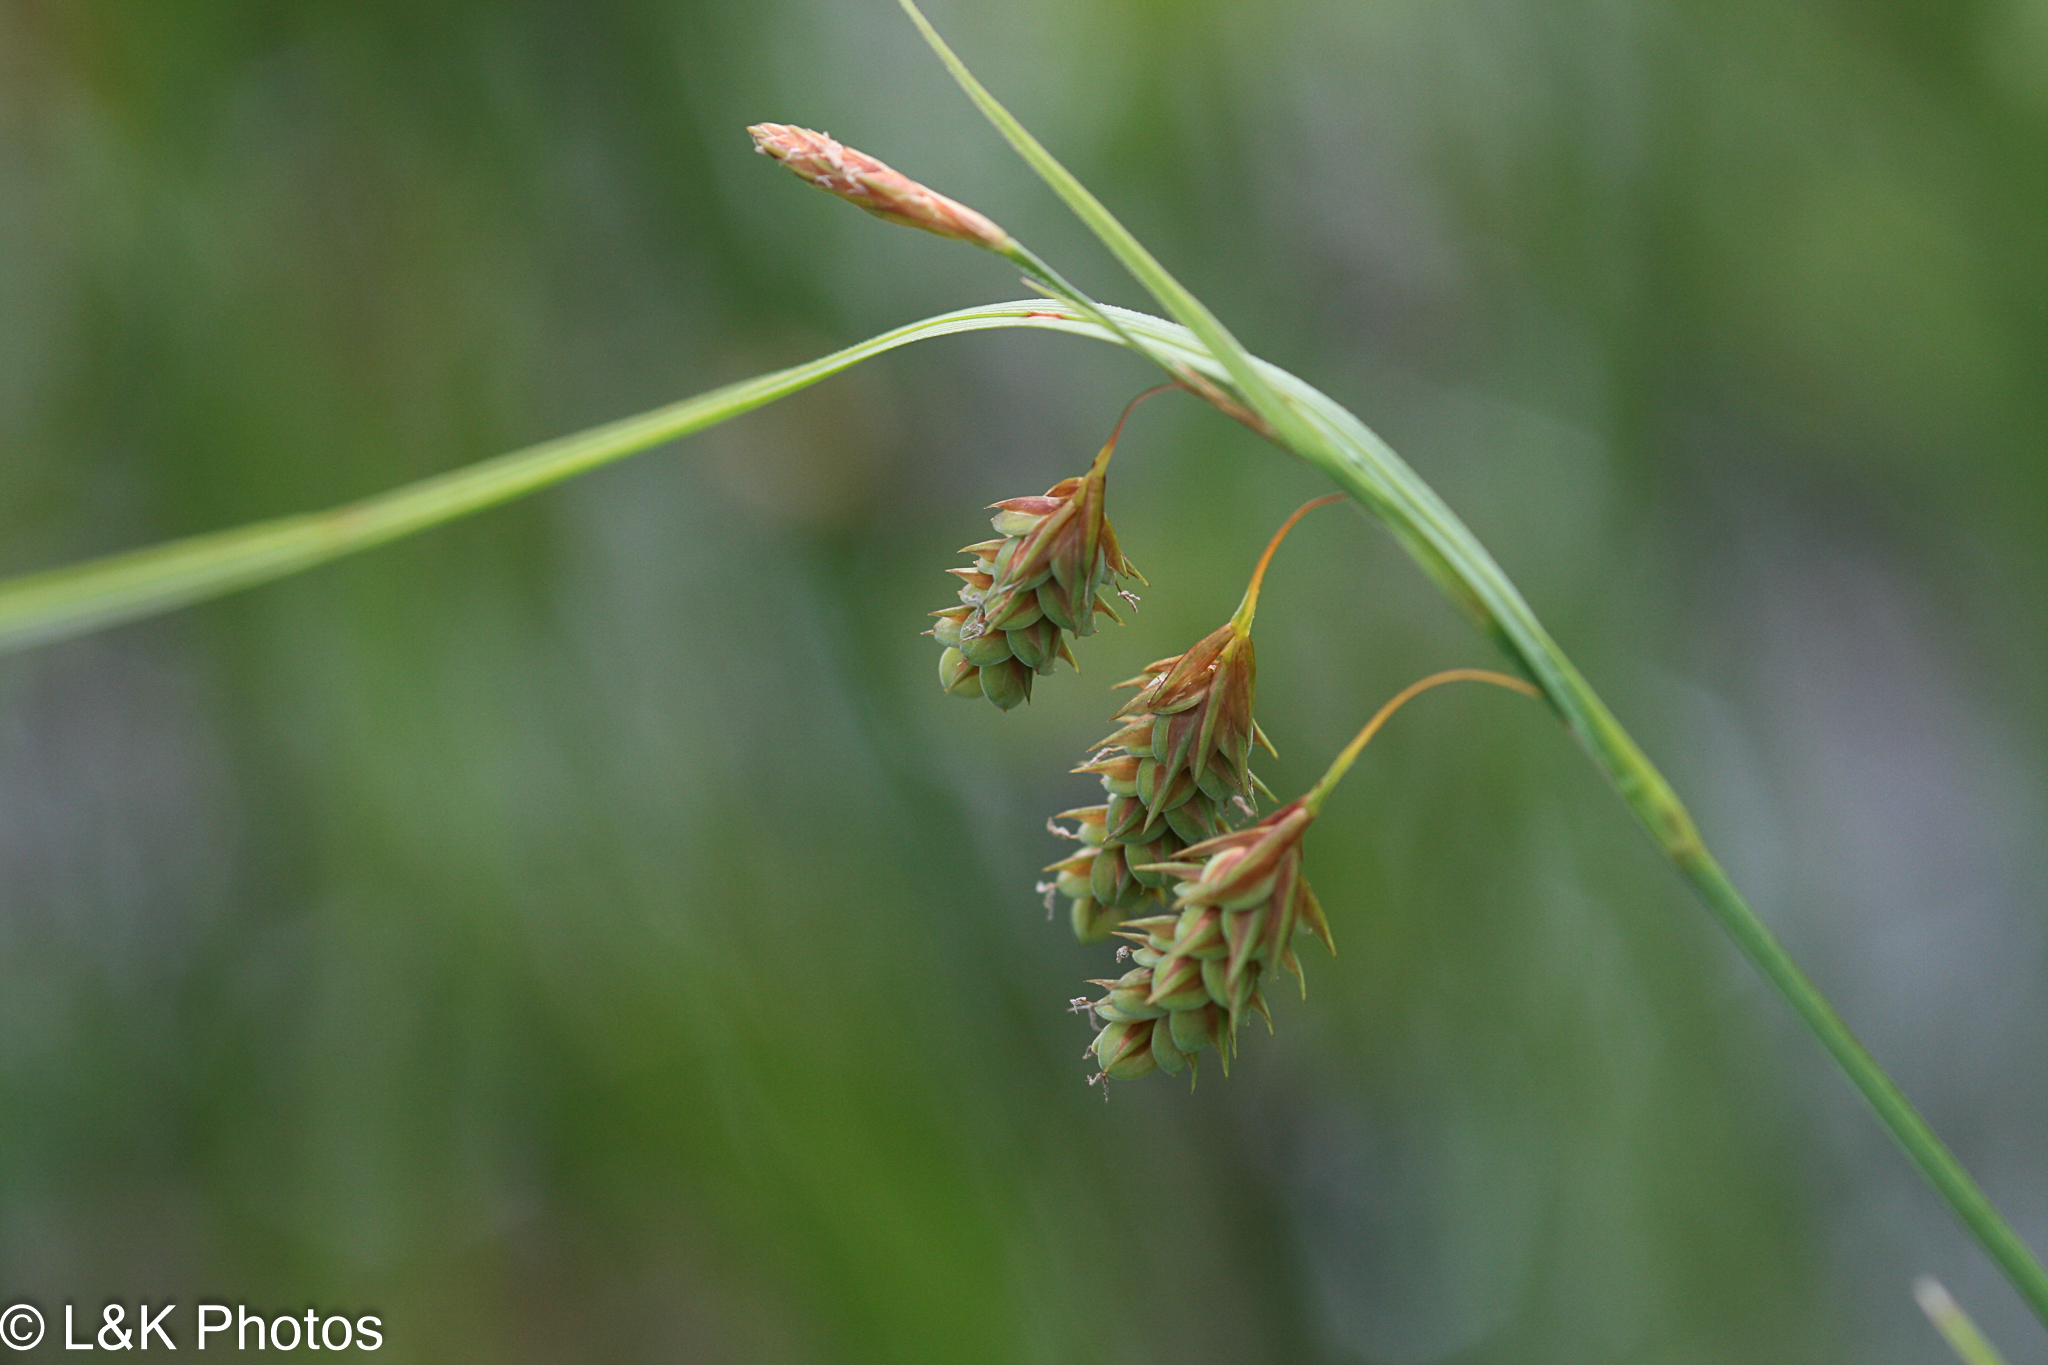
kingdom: Plantae
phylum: Tracheophyta
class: Liliopsida
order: Poales
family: Cyperaceae
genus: Carex
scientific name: Carex magellanica
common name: Bog sedge
